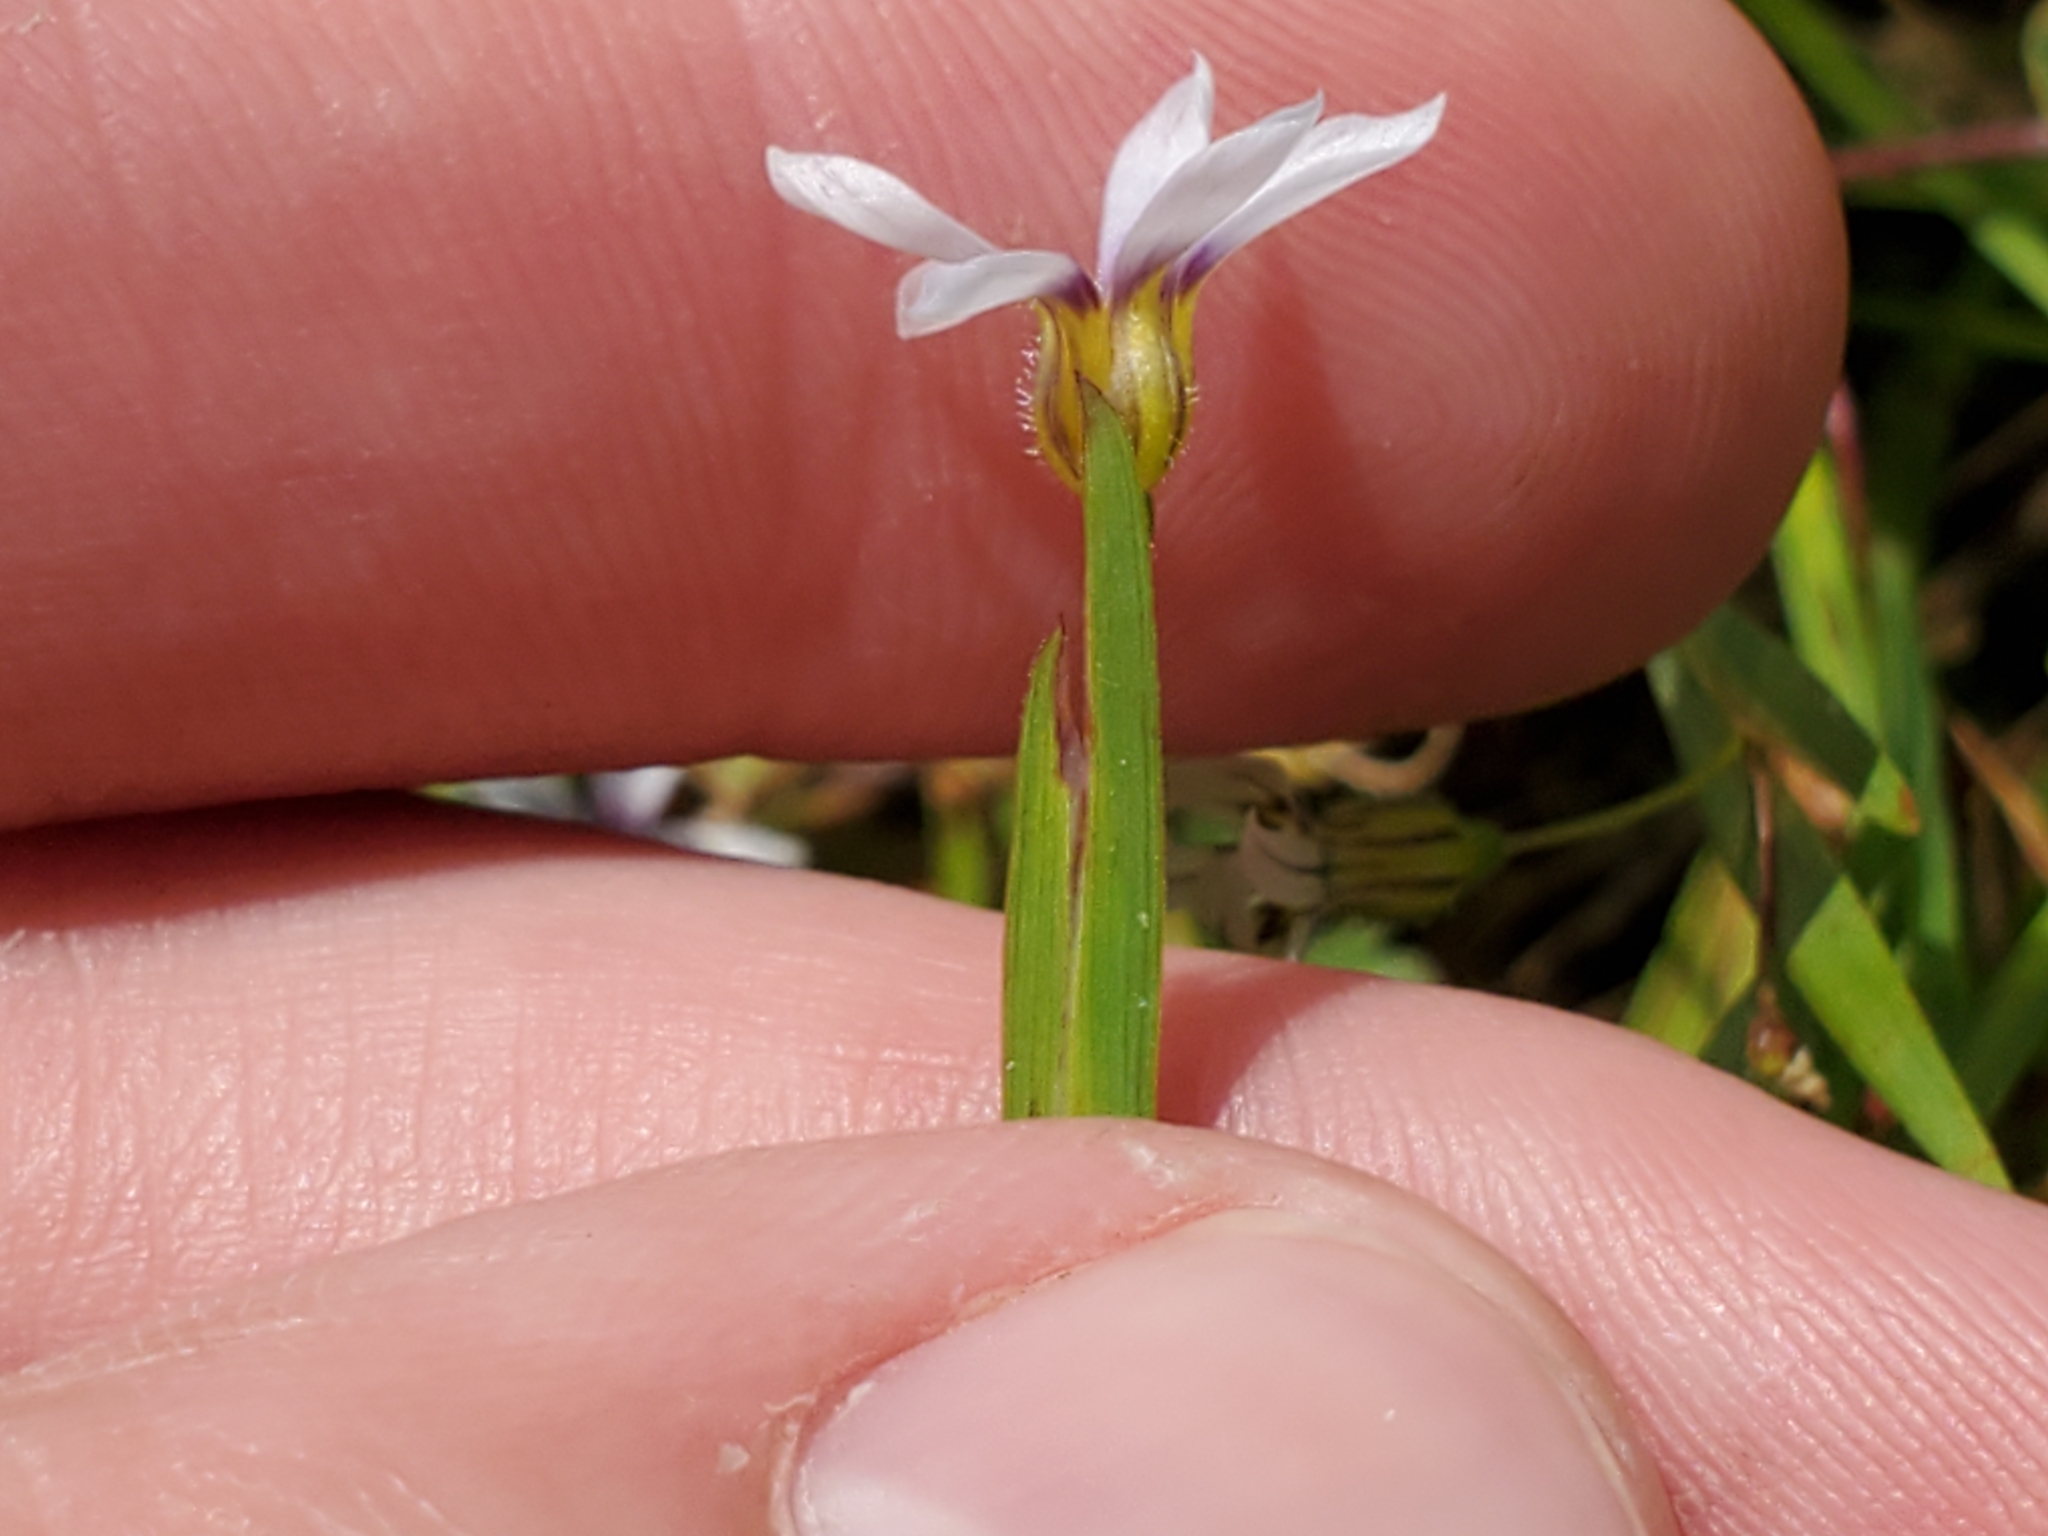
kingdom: Plantae
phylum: Tracheophyta
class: Liliopsida
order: Asparagales
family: Iridaceae
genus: Sisyrinchium
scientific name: Sisyrinchium micranthum
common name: Bermuda pigroot
